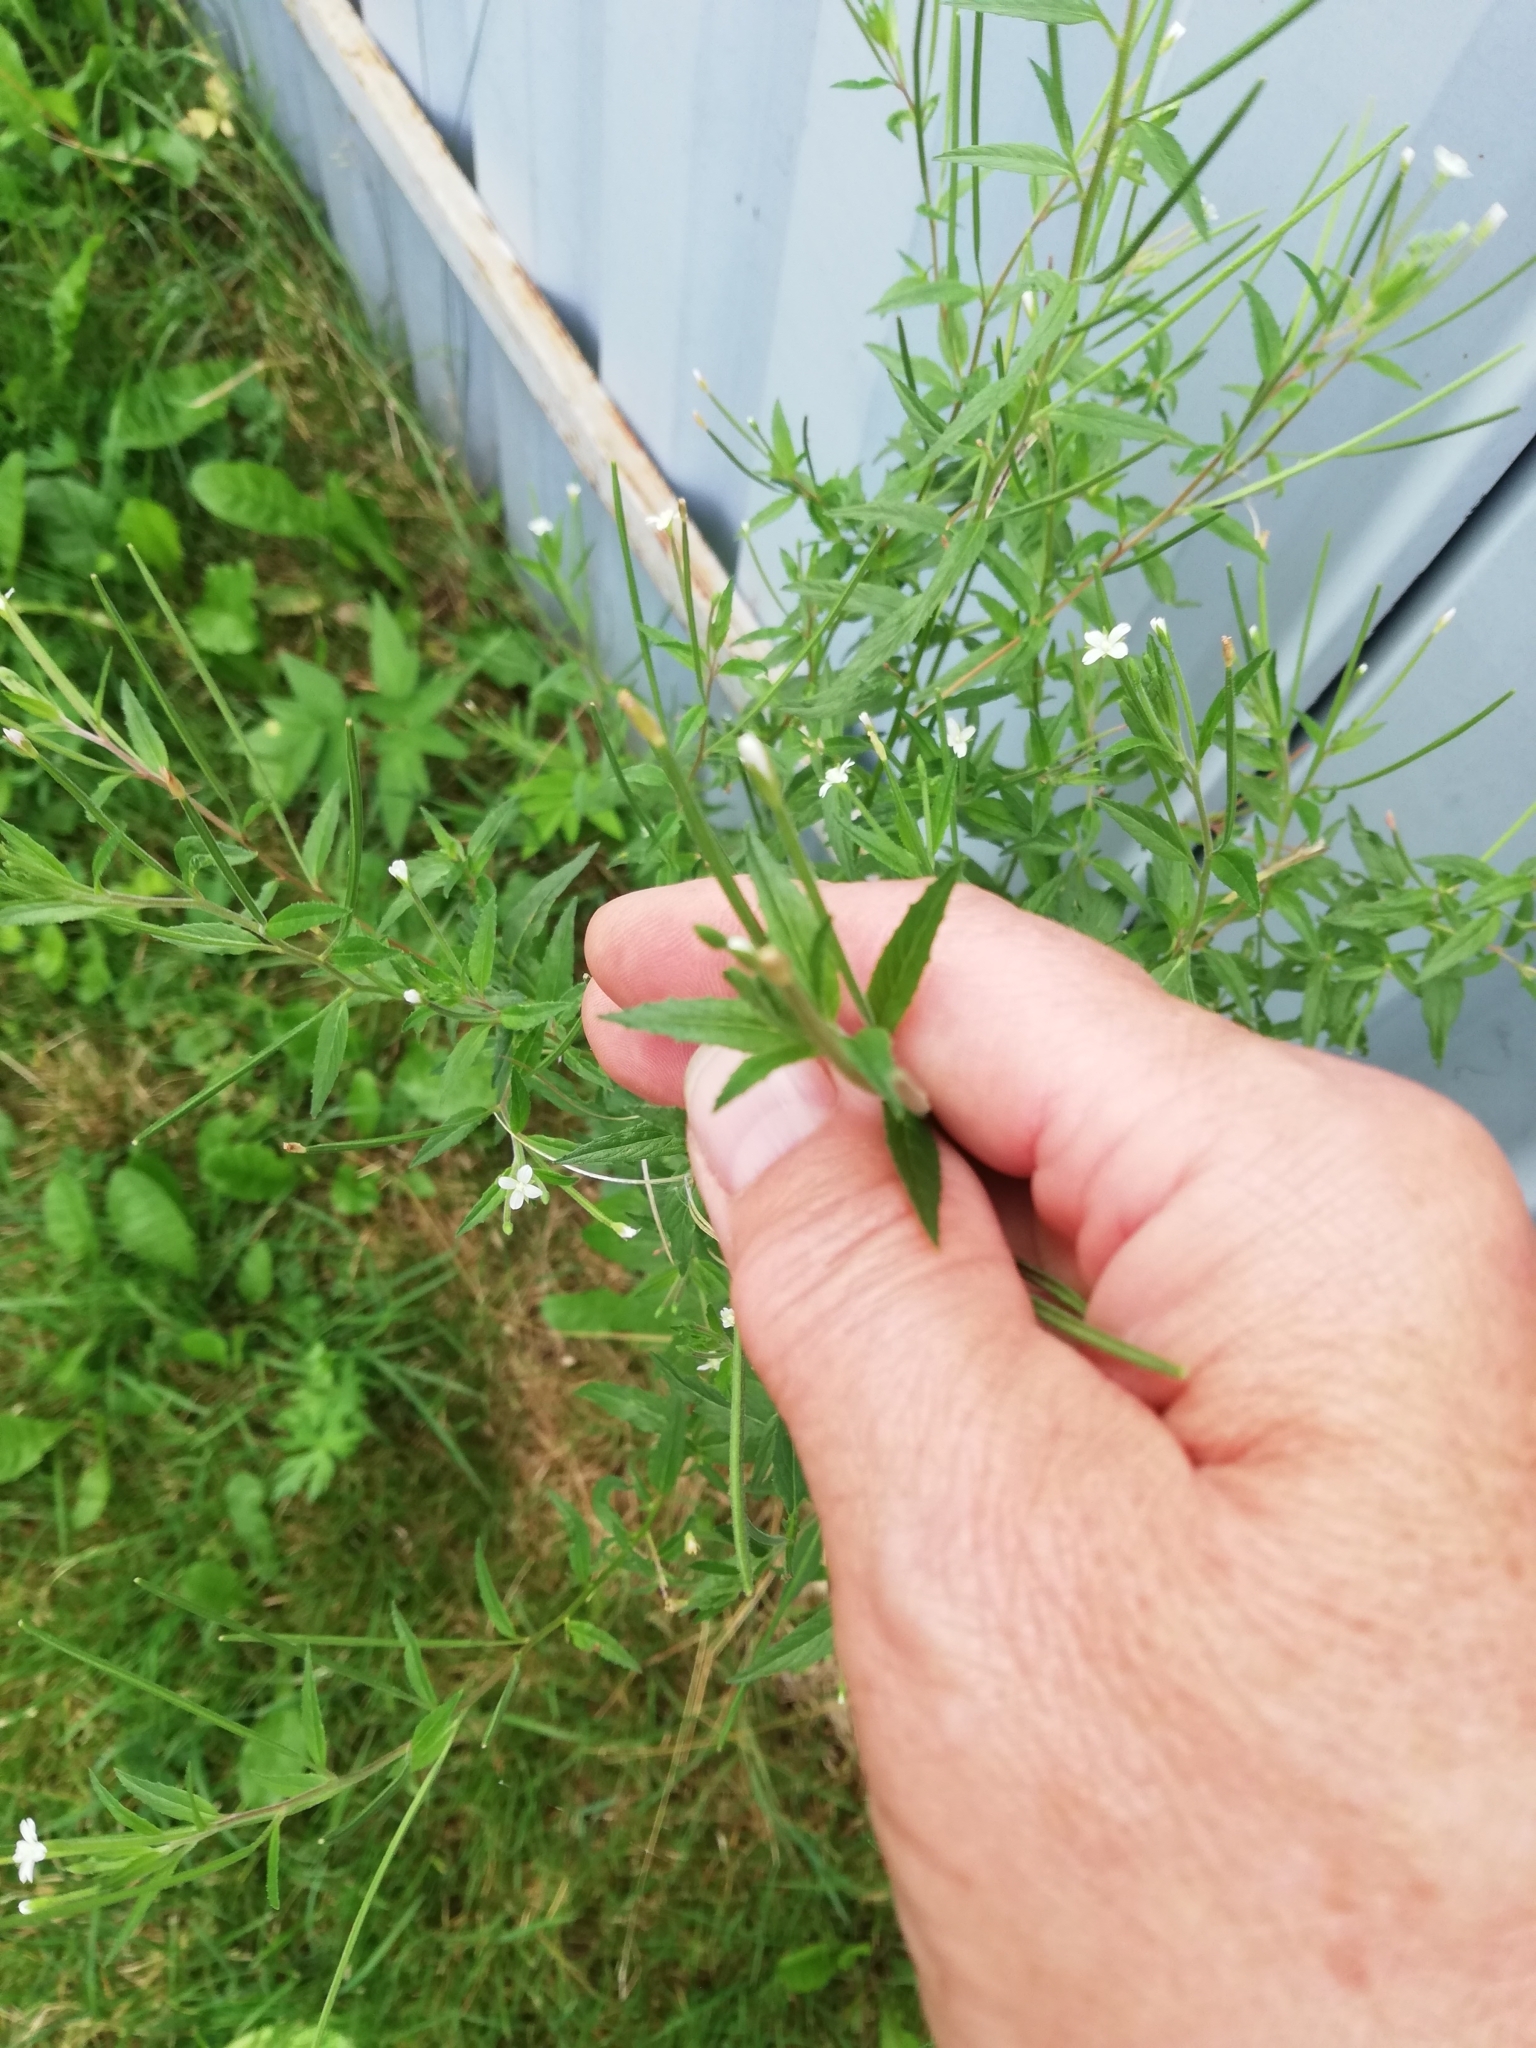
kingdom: Plantae
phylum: Tracheophyta
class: Magnoliopsida
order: Myrtales
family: Onagraceae
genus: Epilobium
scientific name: Epilobium pseudorubescens
